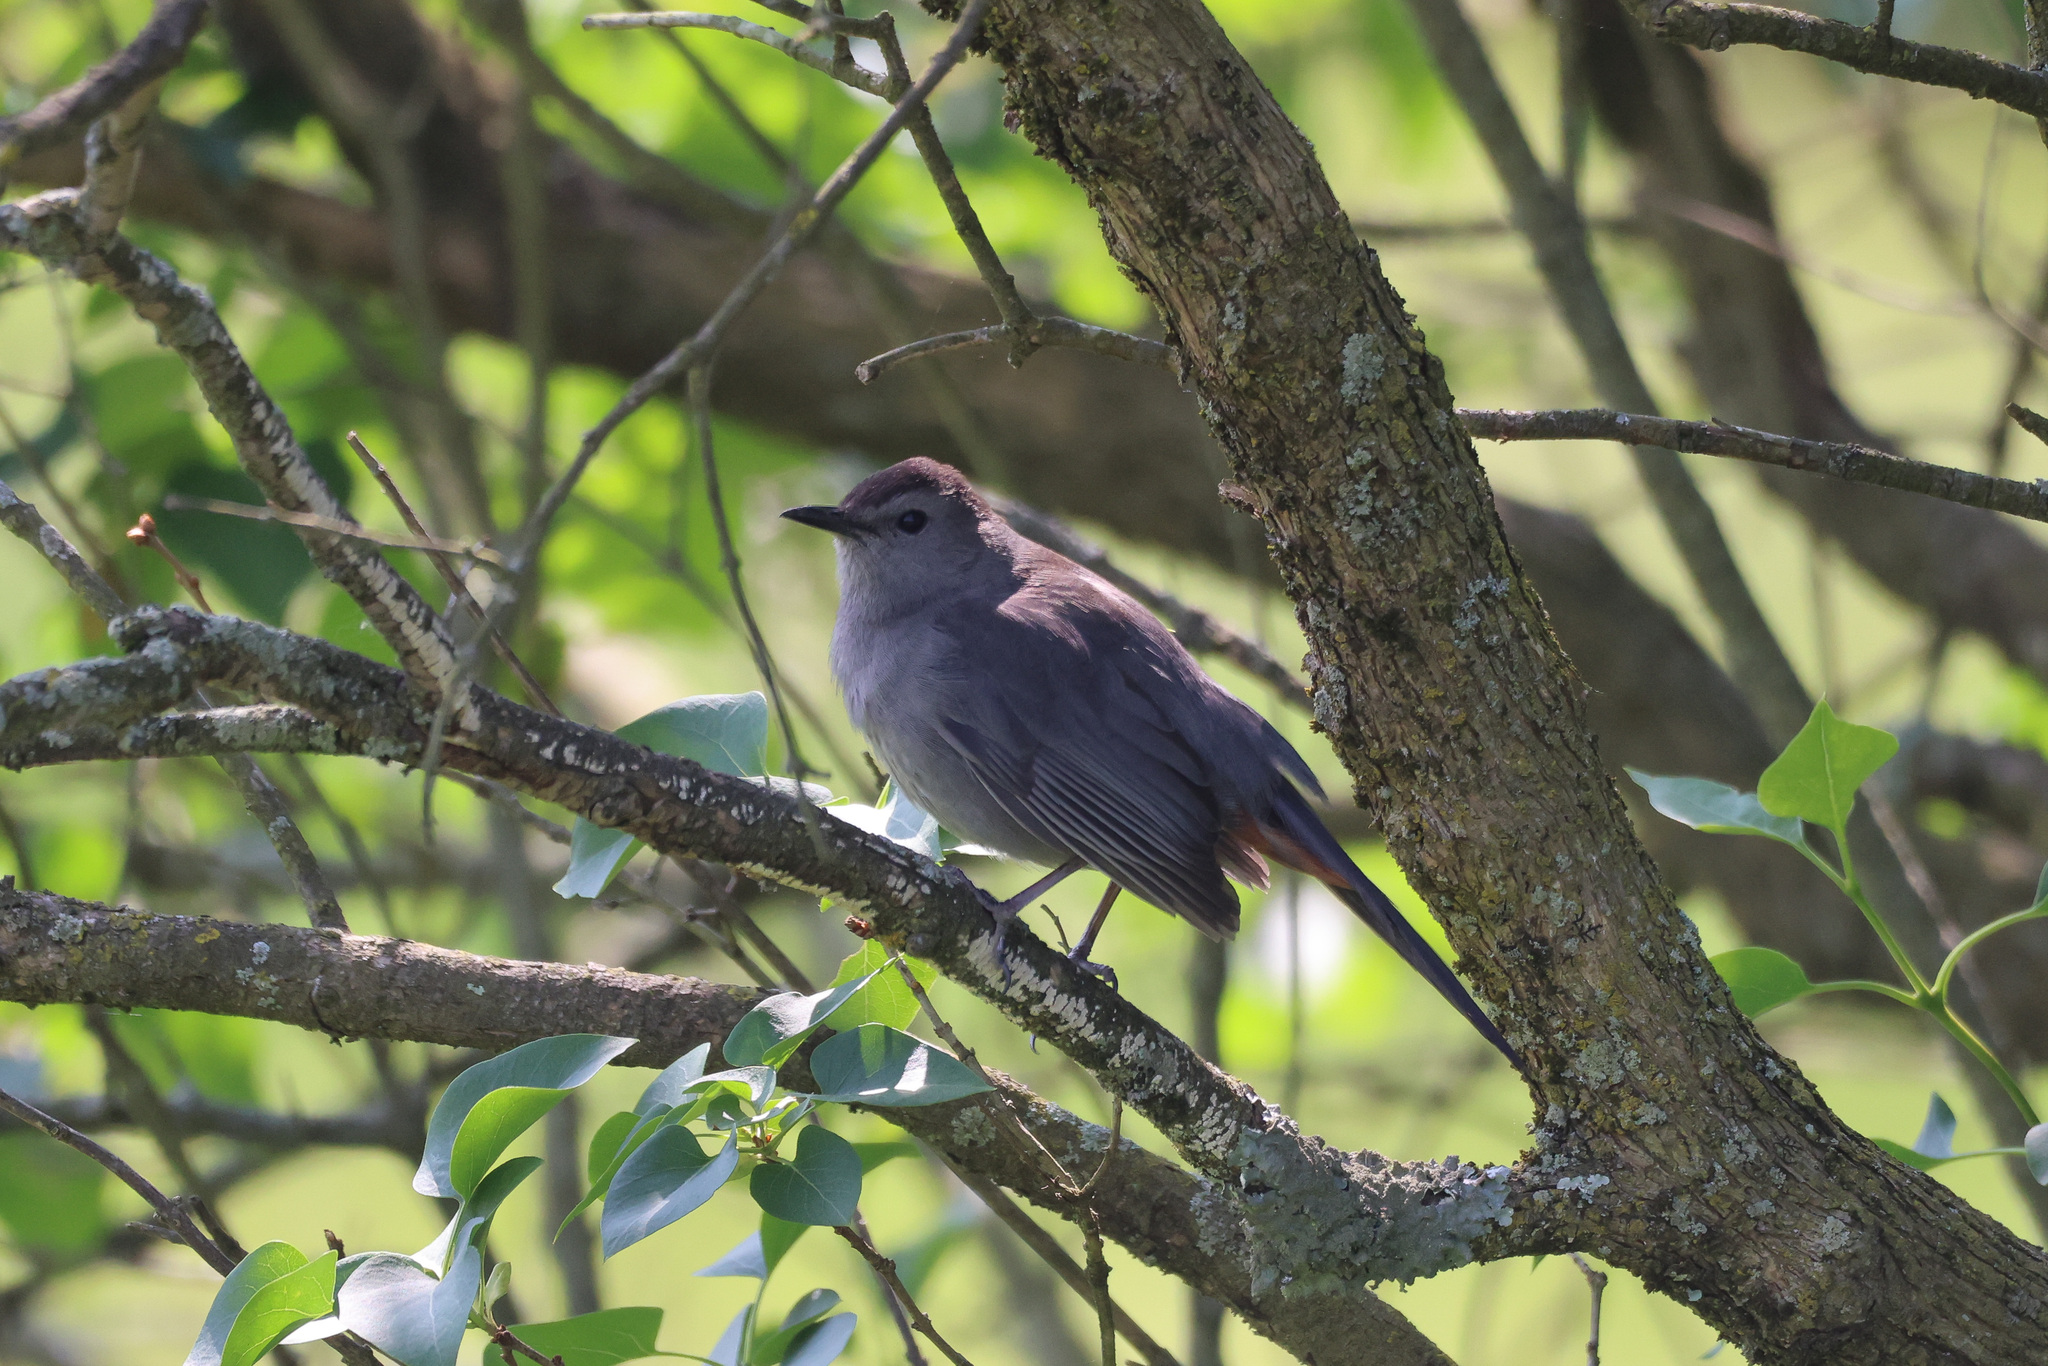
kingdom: Animalia
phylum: Chordata
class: Aves
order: Passeriformes
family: Mimidae
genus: Dumetella
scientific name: Dumetella carolinensis
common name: Gray catbird
